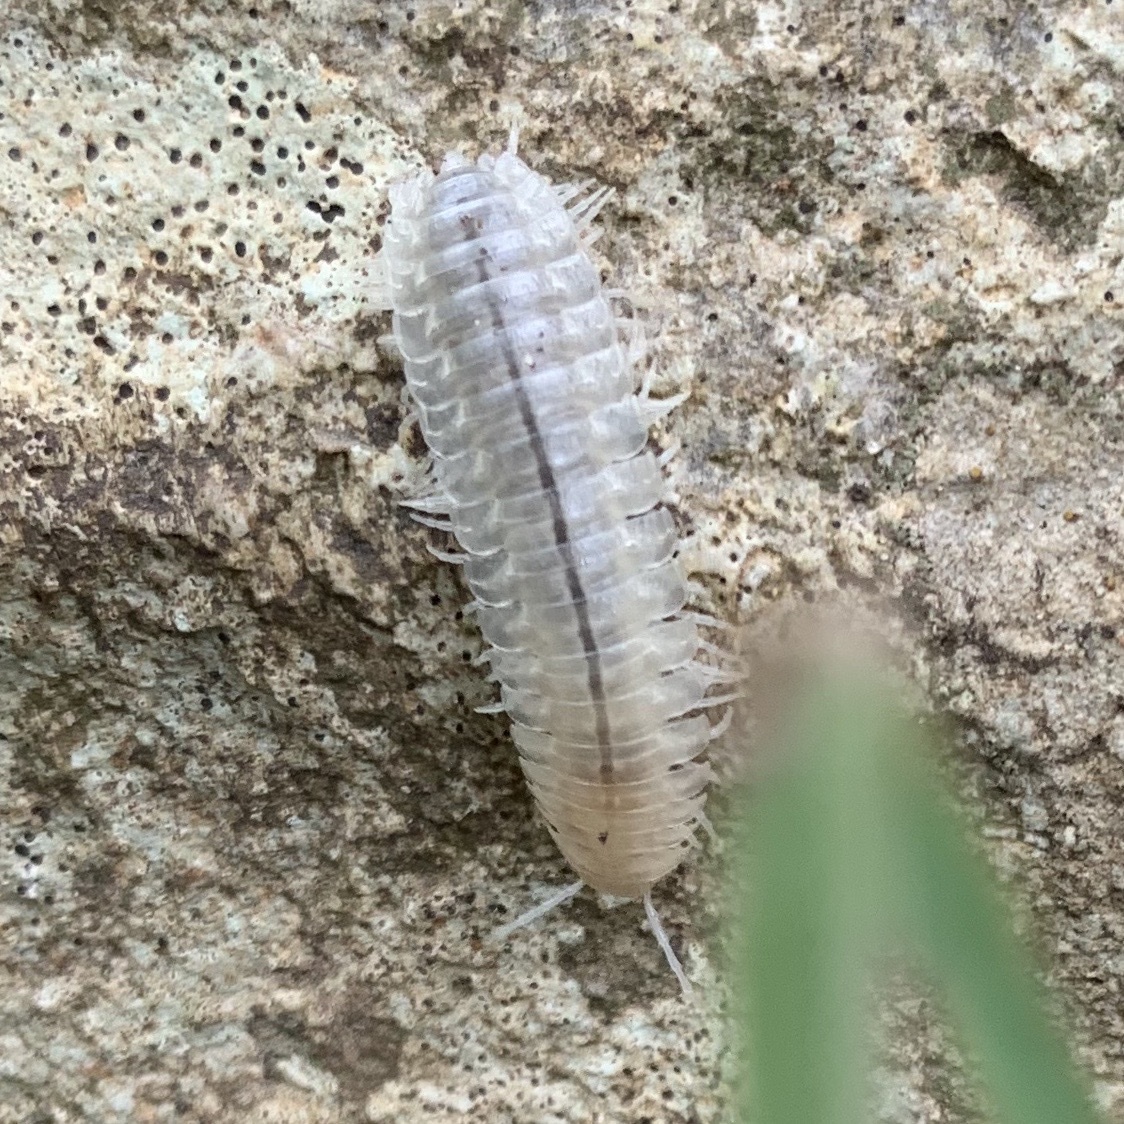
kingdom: Animalia
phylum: Arthropoda
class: Diplopoda
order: Polydesmida
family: Xystodesmidae
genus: Cherokia
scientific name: Cherokia georgiana
